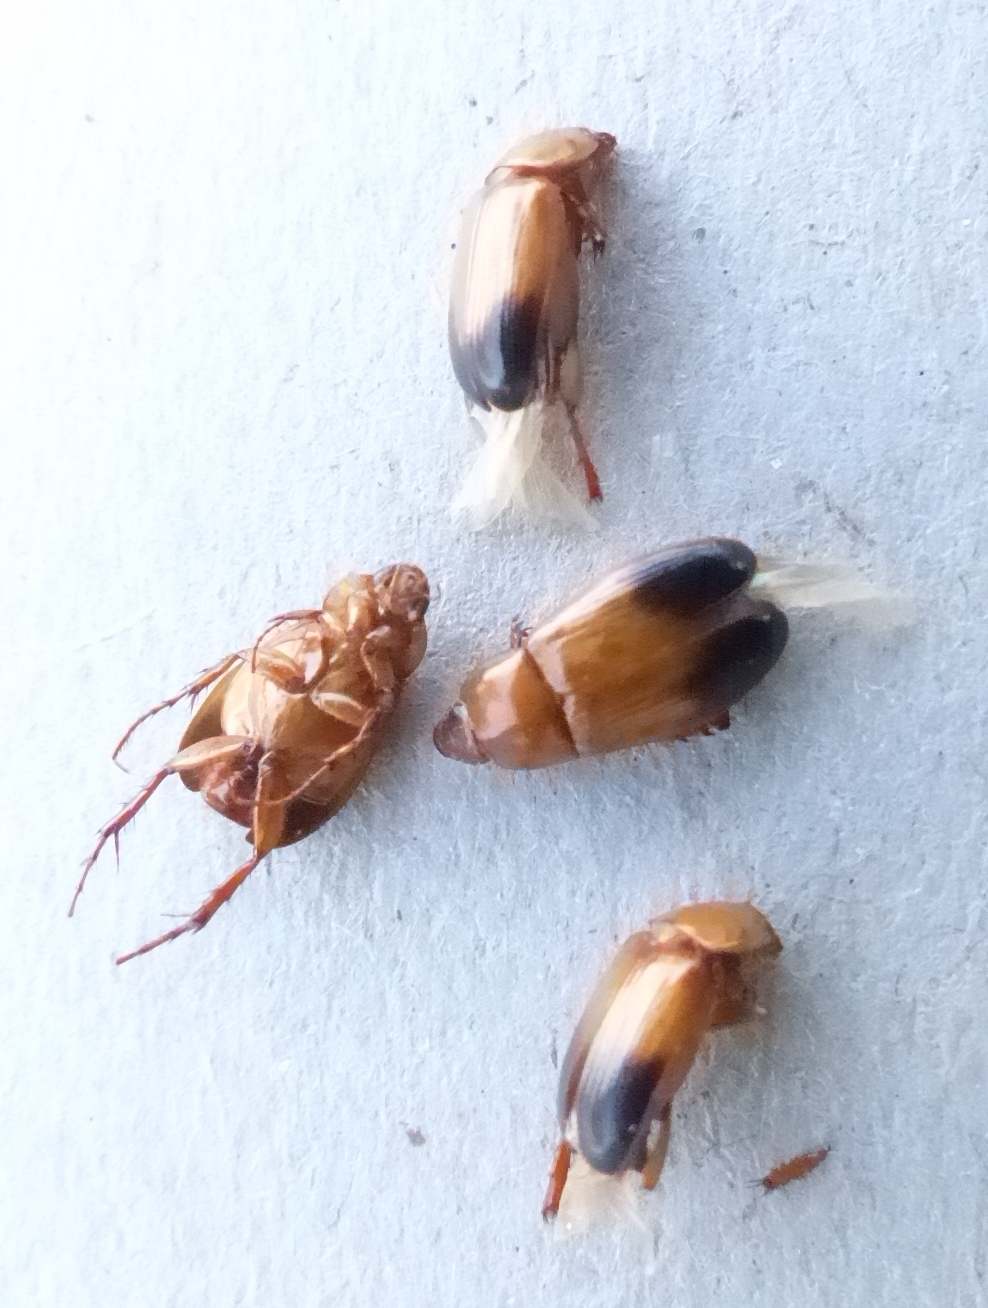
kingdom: Animalia
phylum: Arthropoda
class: Insecta
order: Coleoptera
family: Scarabaeidae
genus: Phyllotocus
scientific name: Phyllotocus macleayi
